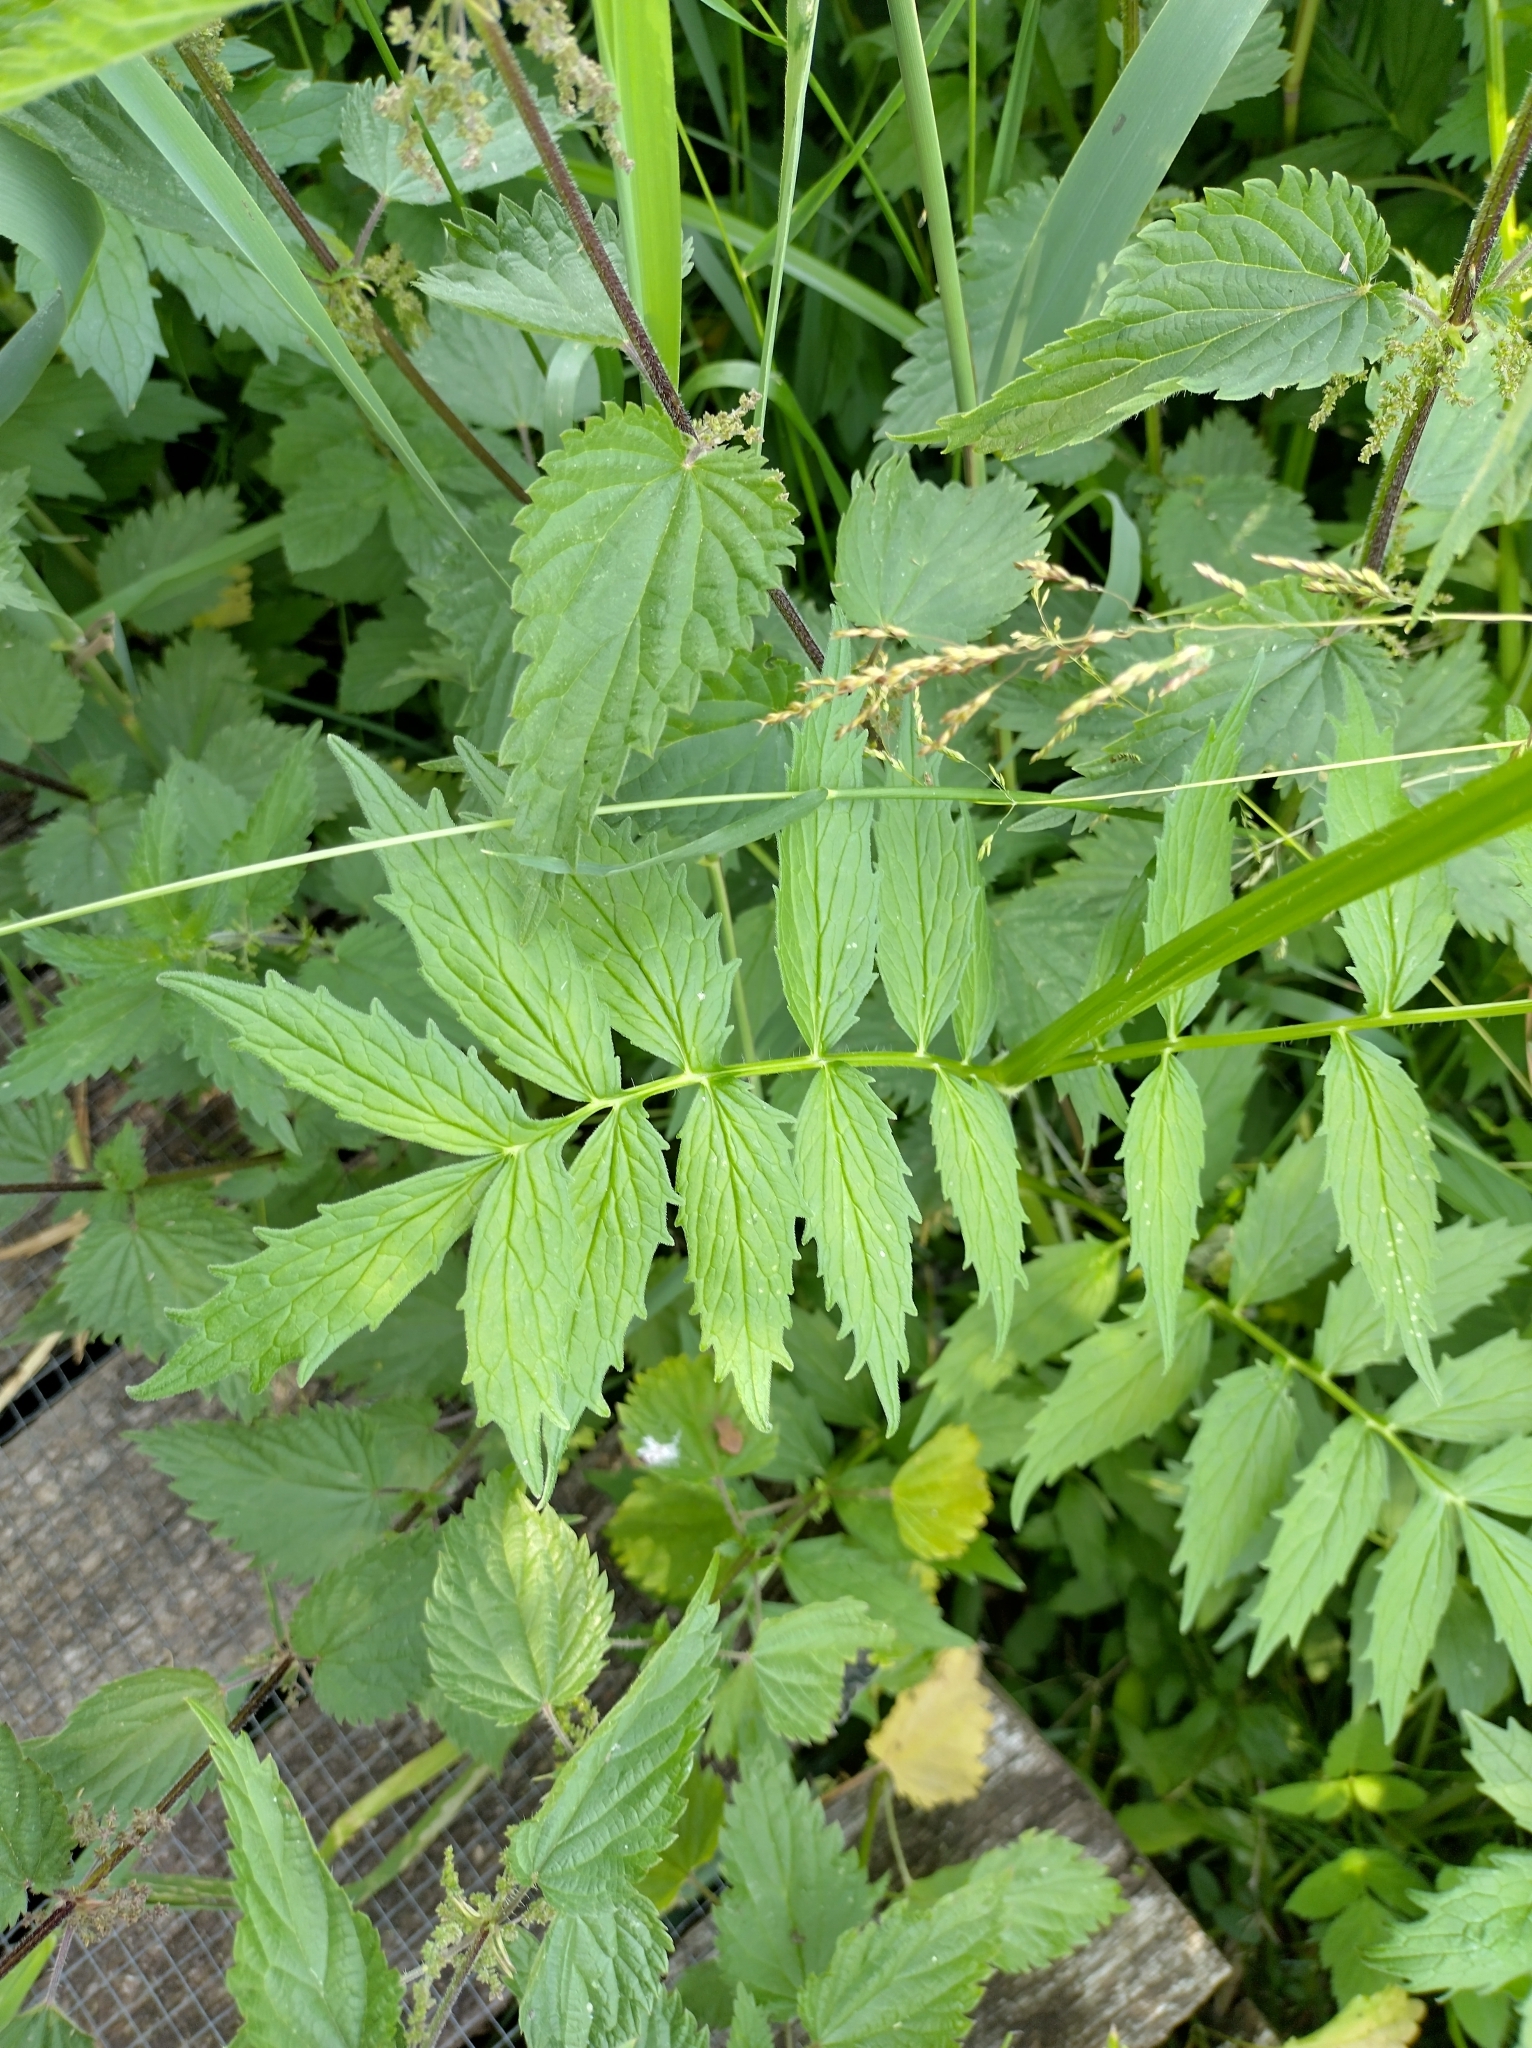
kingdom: Plantae
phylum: Tracheophyta
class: Magnoliopsida
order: Dipsacales
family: Caprifoliaceae
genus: Valeriana
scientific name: Valeriana officinalis
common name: Common valerian
